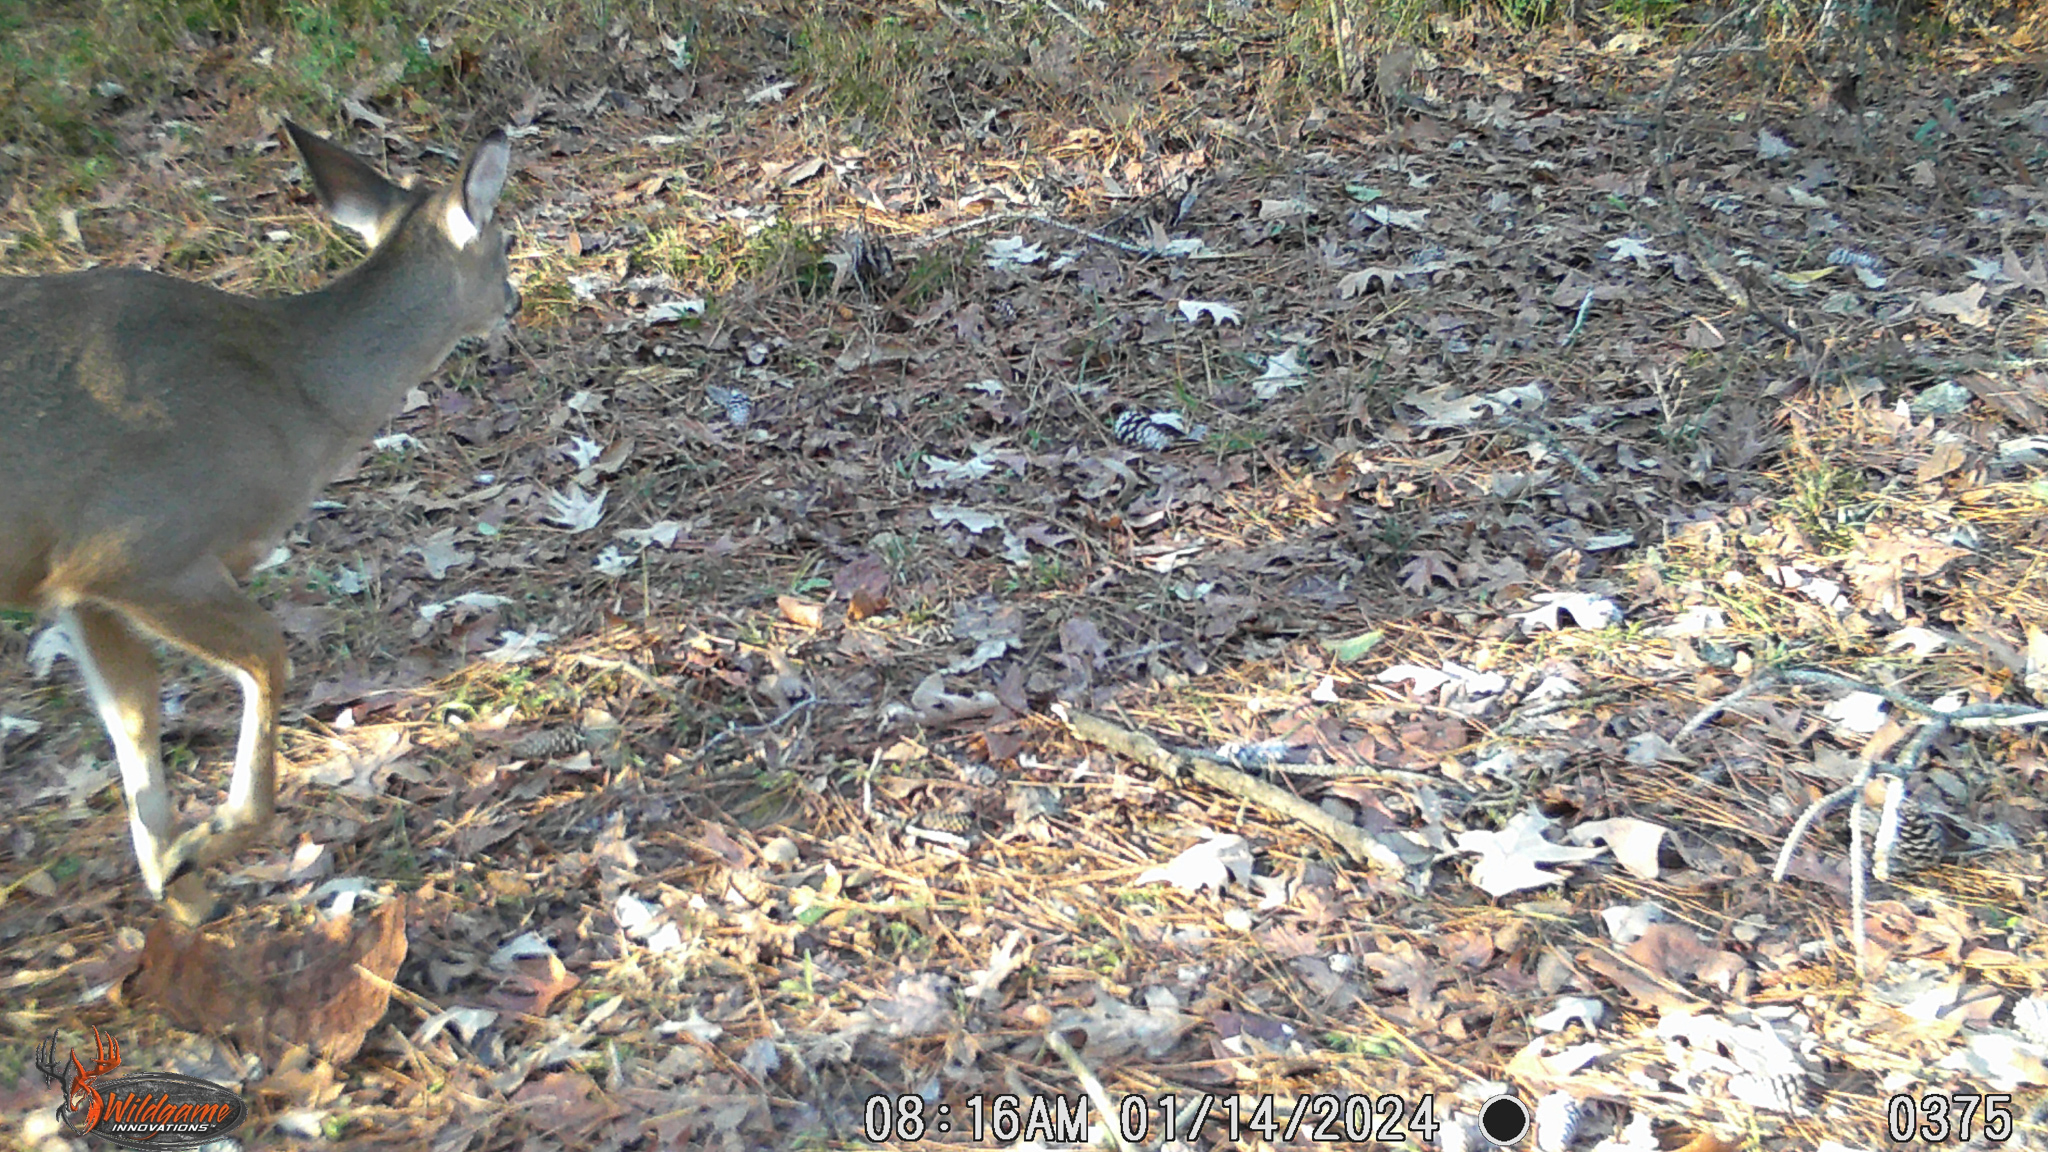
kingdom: Animalia
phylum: Chordata
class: Mammalia
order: Artiodactyla
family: Cervidae
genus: Odocoileus
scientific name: Odocoileus virginianus
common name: White-tailed deer
